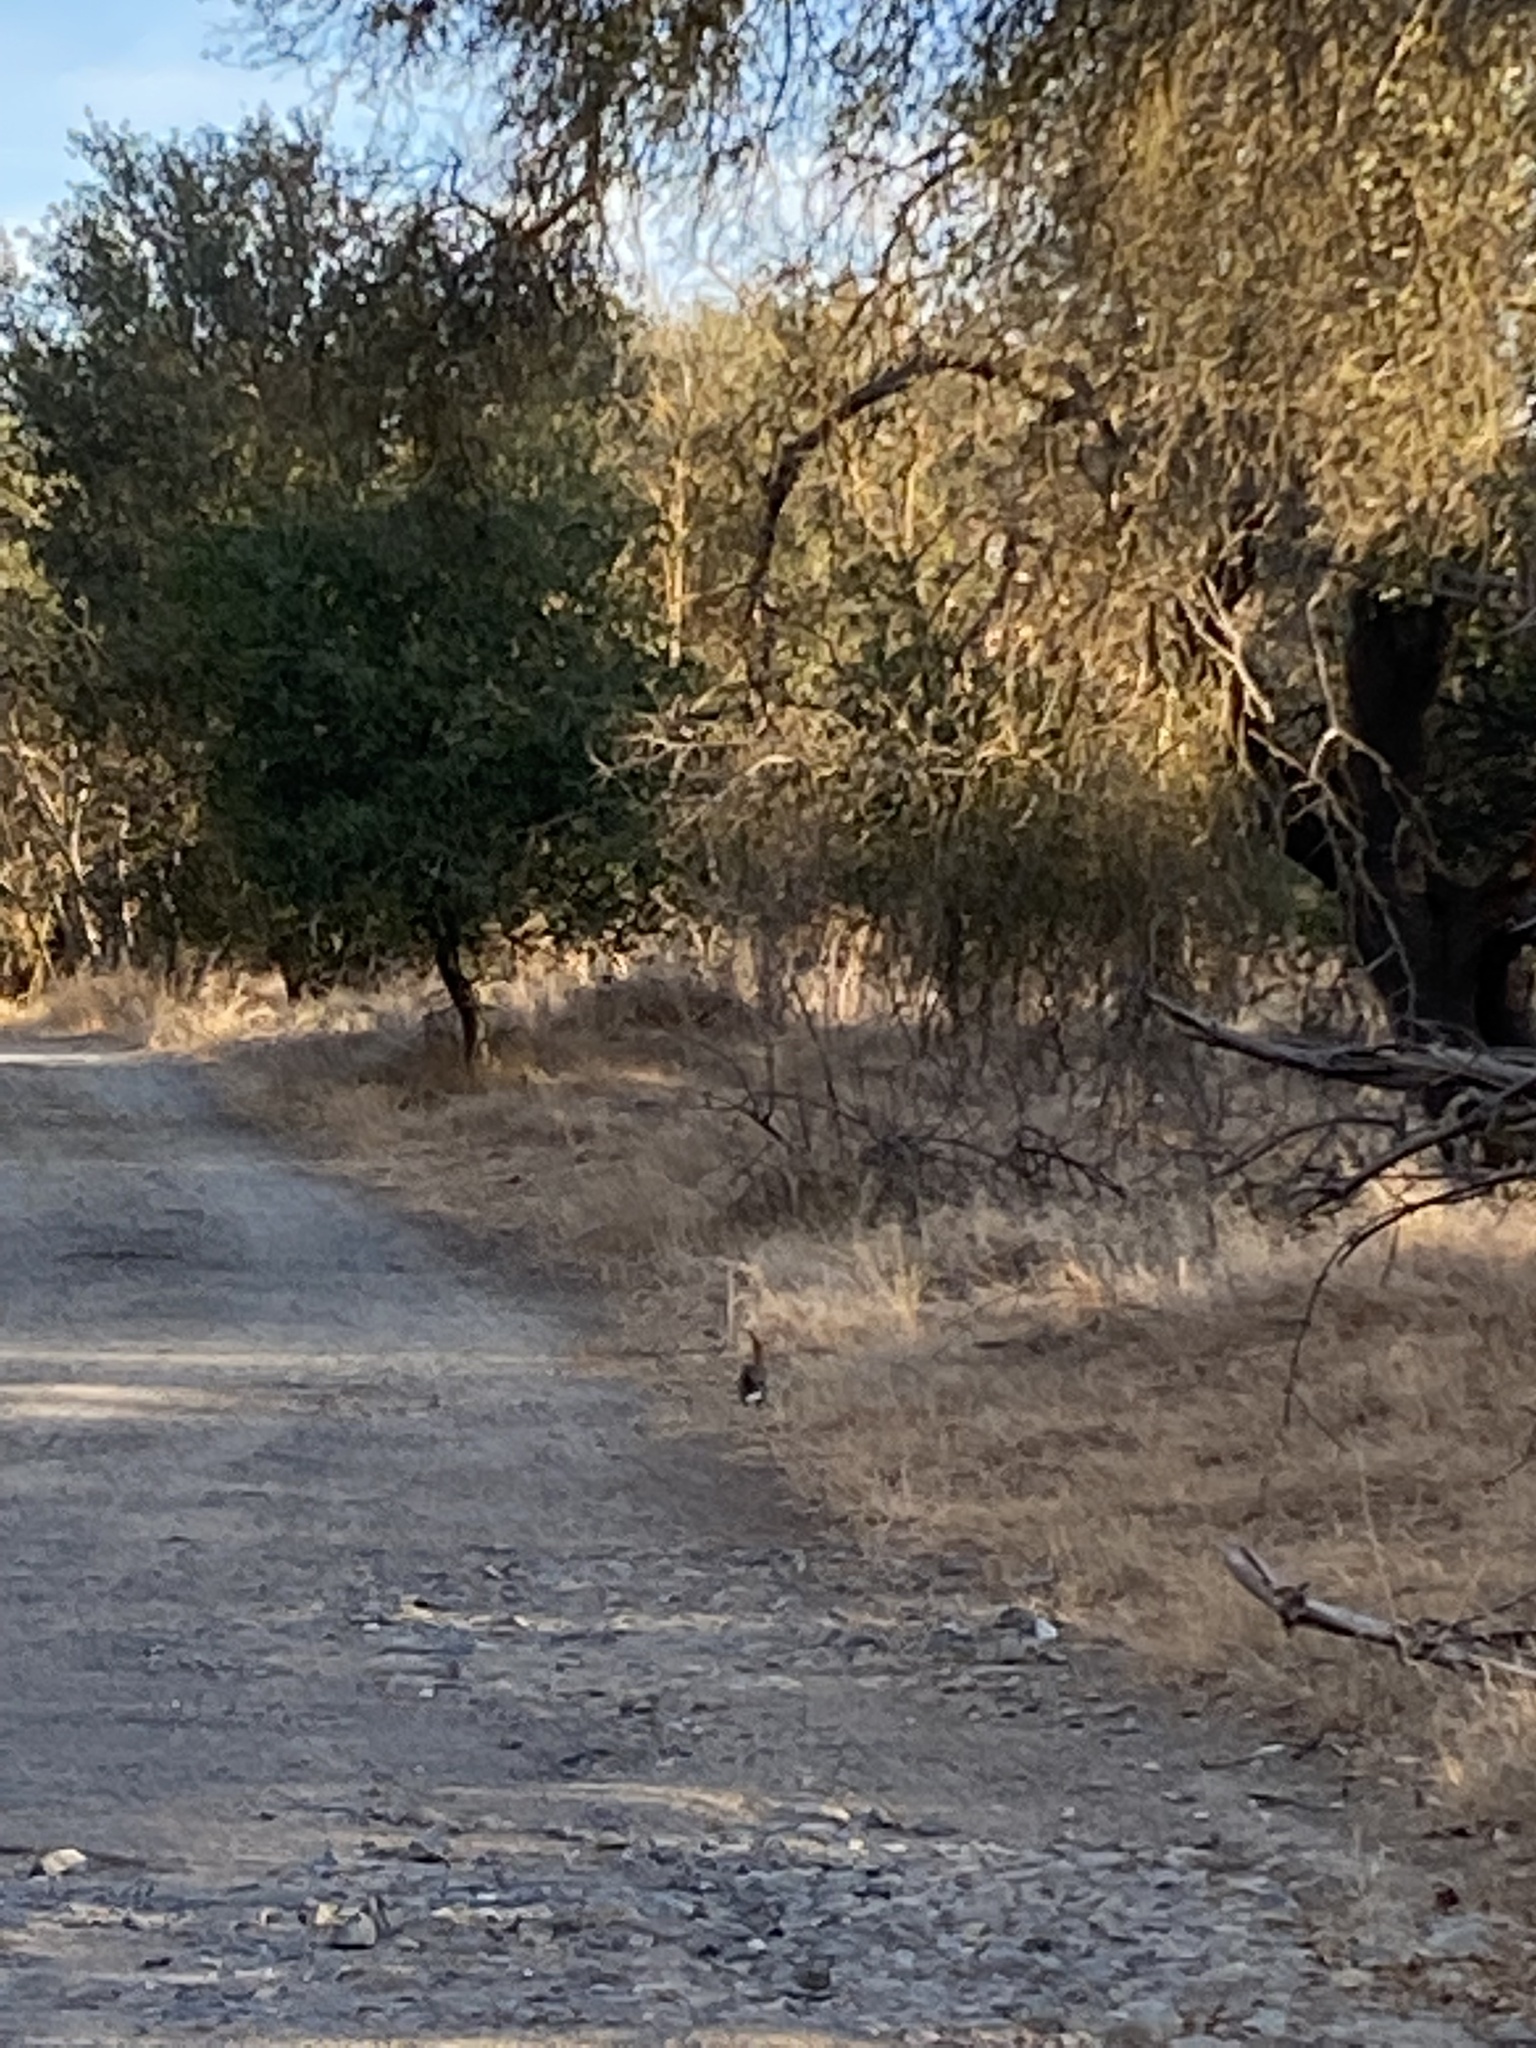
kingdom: Animalia
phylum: Chordata
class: Mammalia
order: Lagomorpha
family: Leporidae
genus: Sylvilagus
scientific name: Sylvilagus audubonii
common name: Desert cottontail
